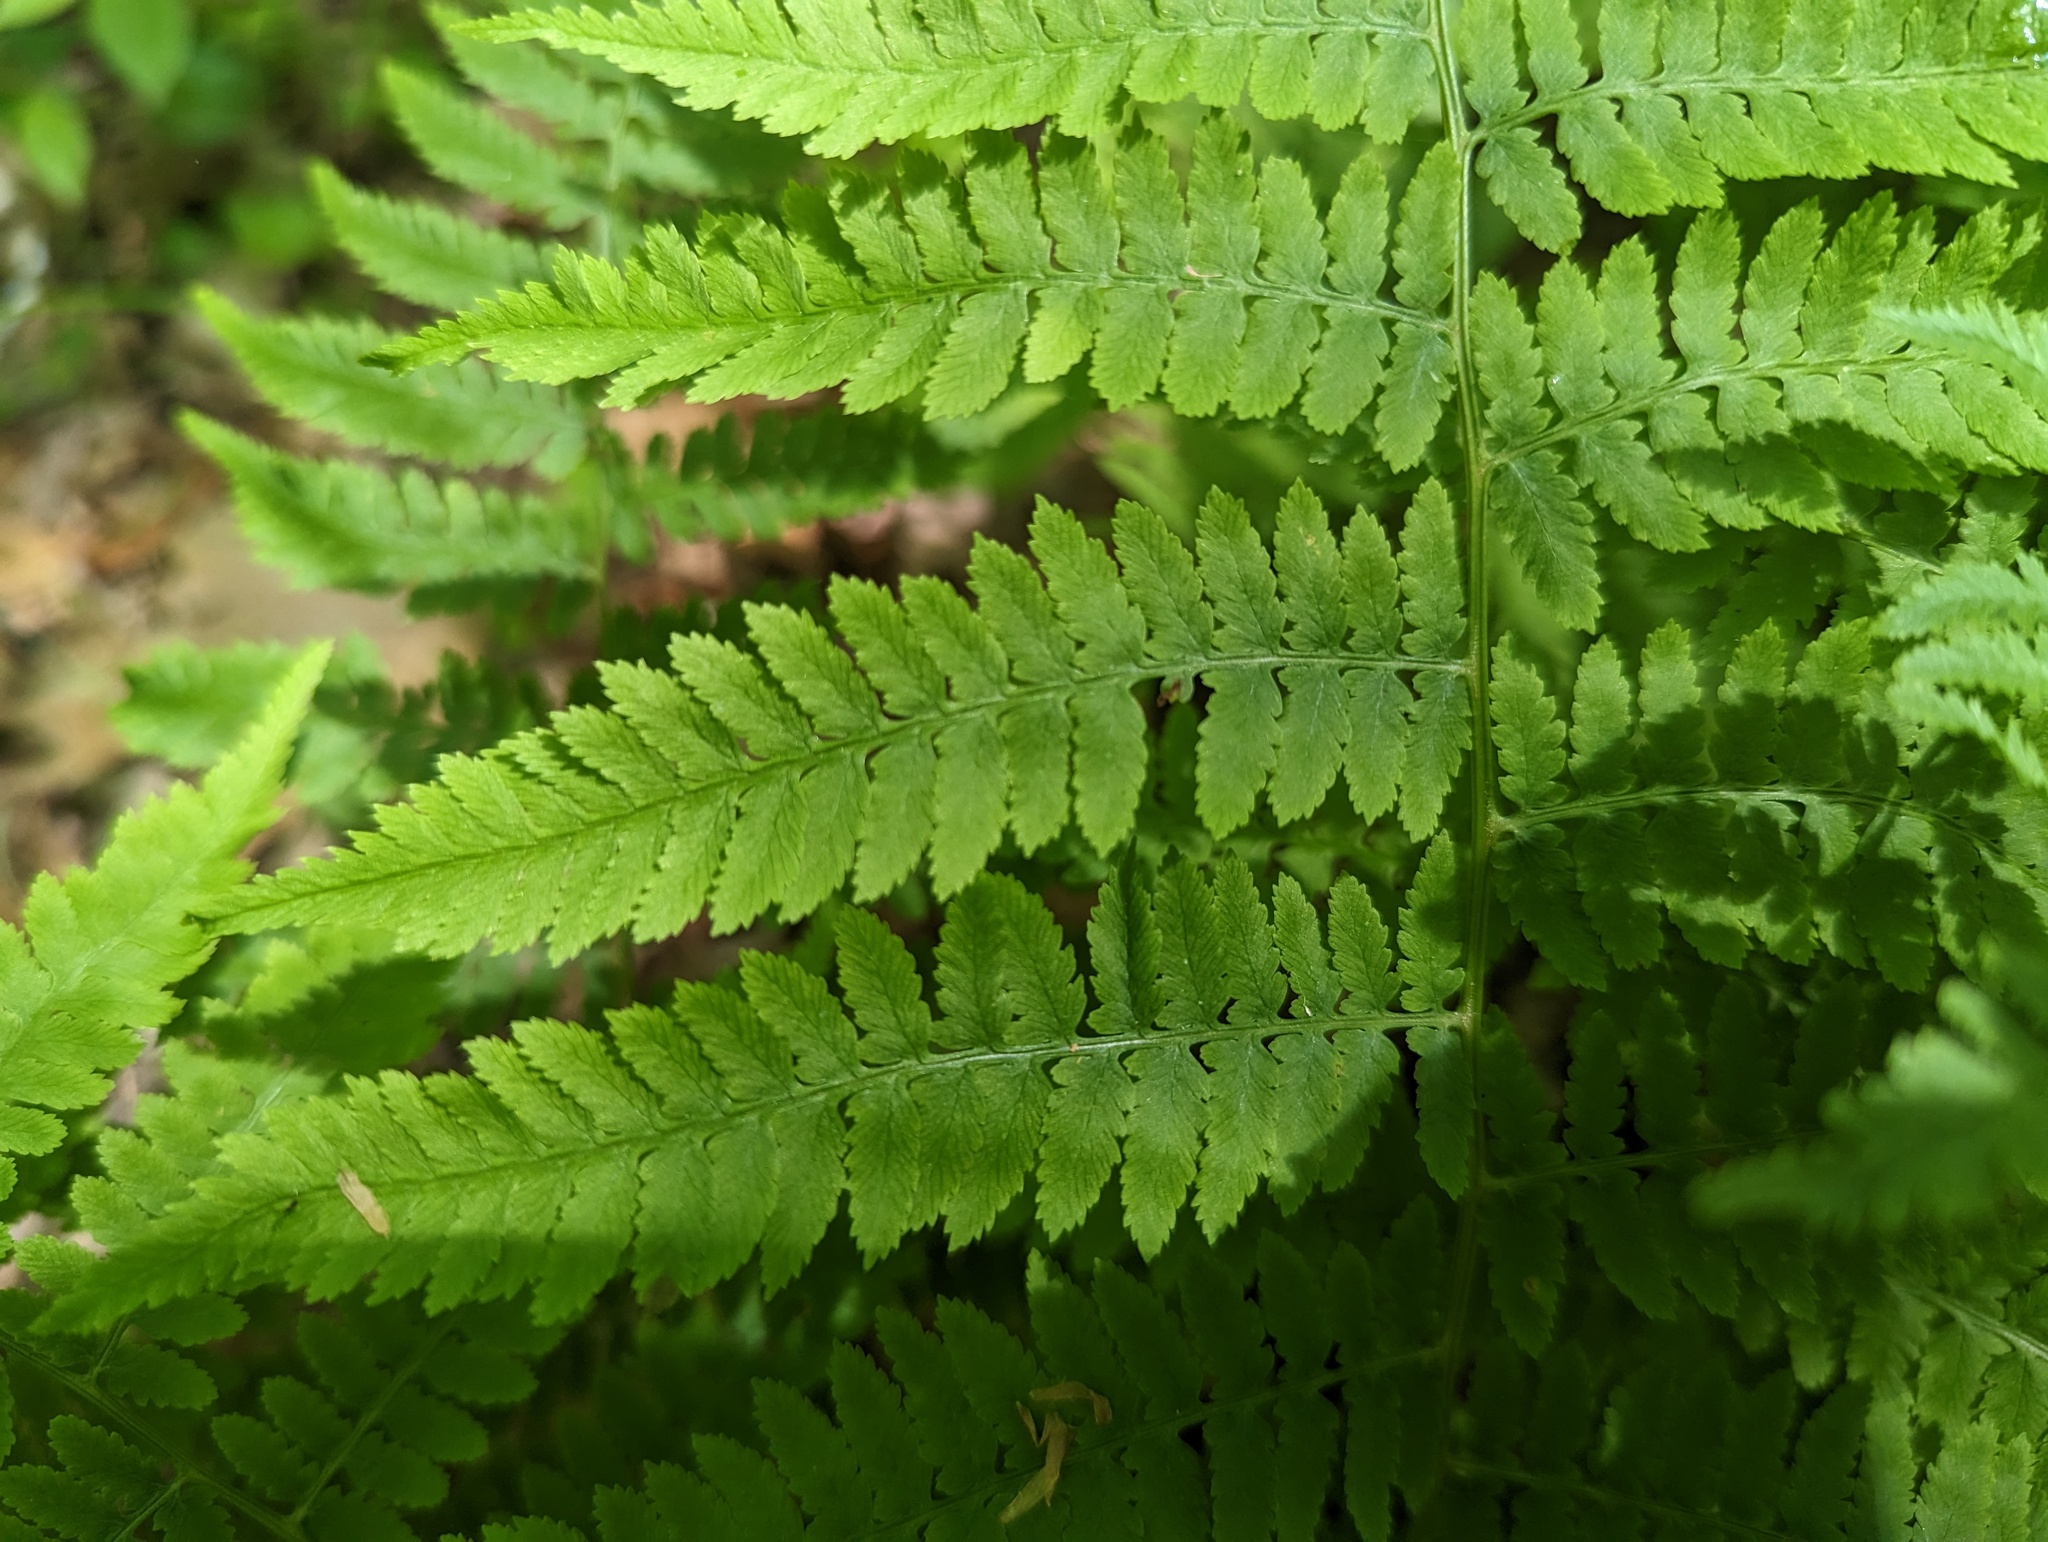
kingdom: Plantae
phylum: Tracheophyta
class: Polypodiopsida
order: Polypodiales
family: Athyriaceae
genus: Athyrium
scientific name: Athyrium asplenioides
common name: Southern lady fern
